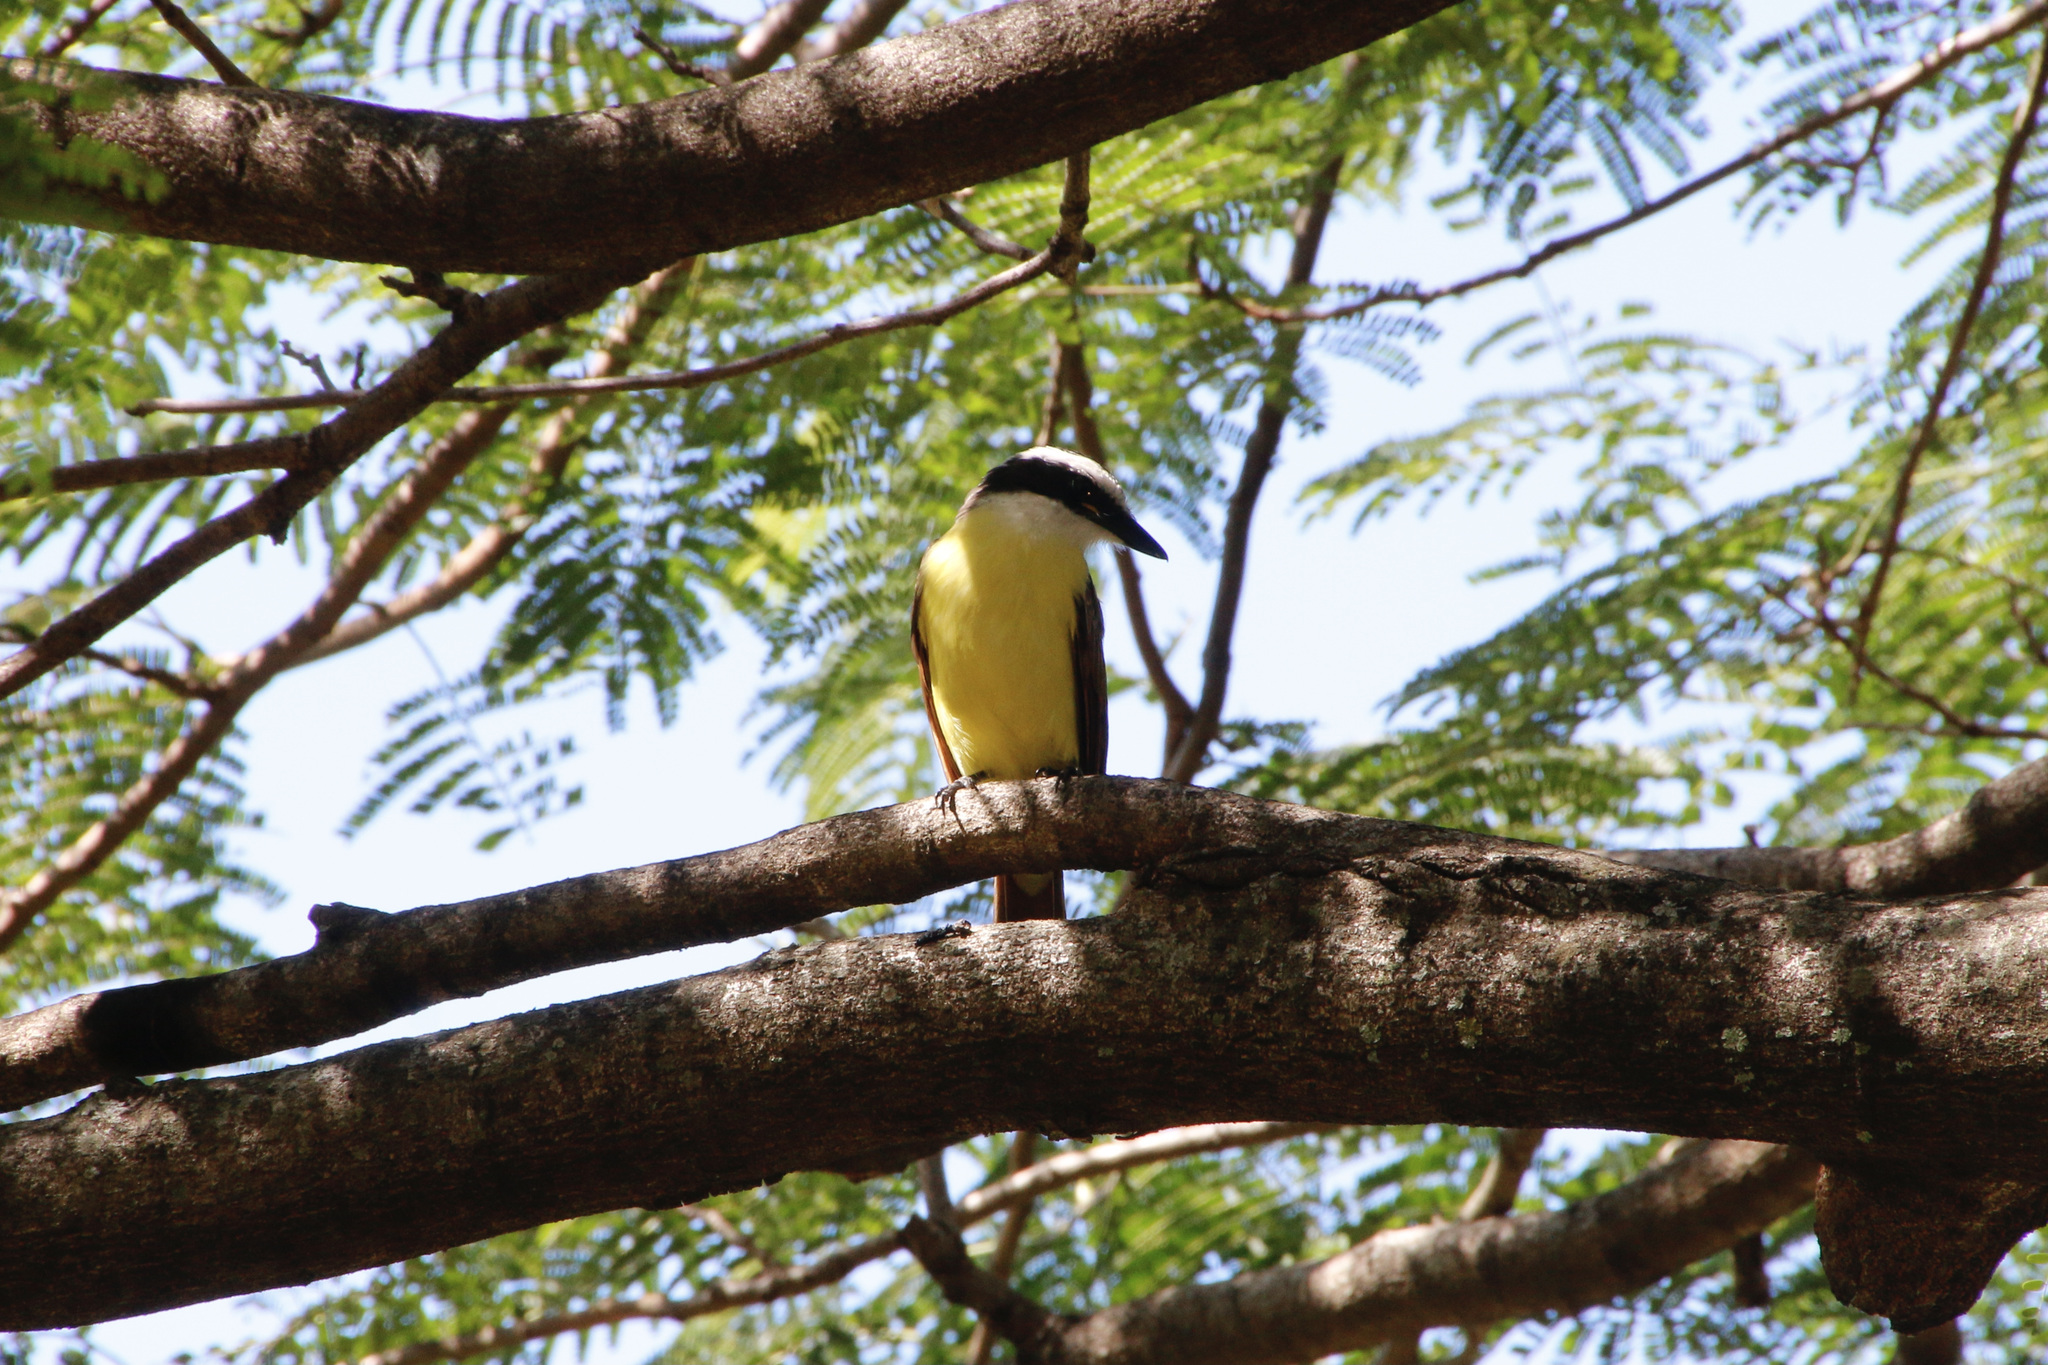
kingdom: Animalia
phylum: Chordata
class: Aves
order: Passeriformes
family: Tyrannidae
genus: Pitangus
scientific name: Pitangus sulphuratus
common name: Great kiskadee
